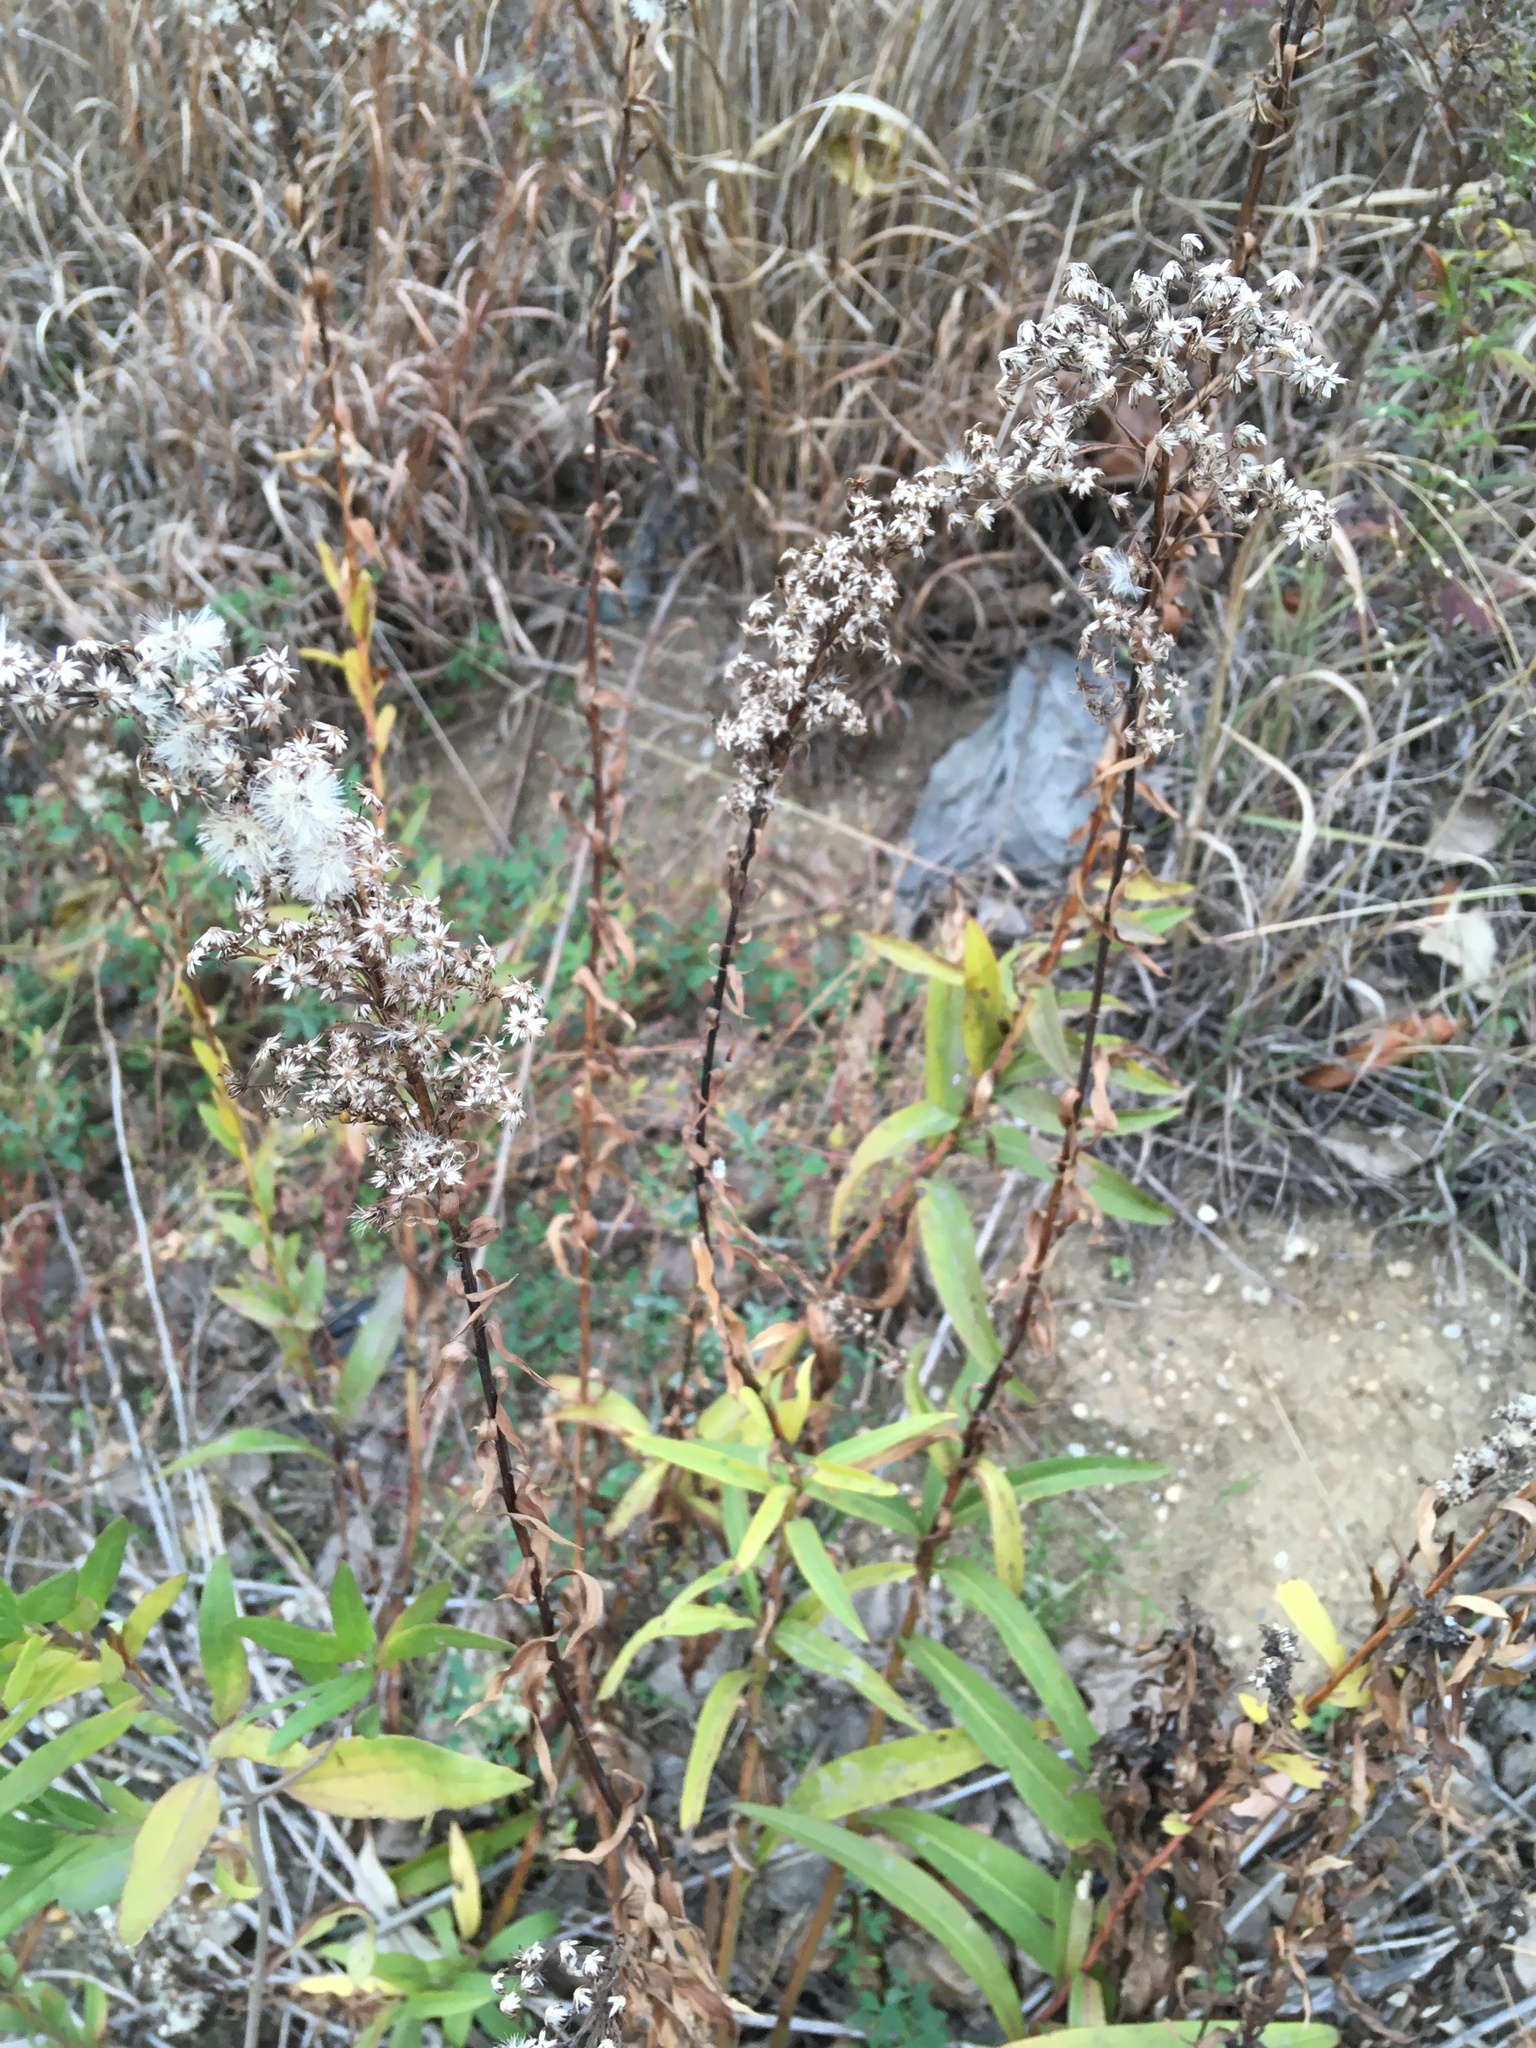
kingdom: Plantae
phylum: Tracheophyta
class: Magnoliopsida
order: Asterales
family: Asteraceae
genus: Solidago
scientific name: Solidago sempervirens
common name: Salt-marsh goldenrod
